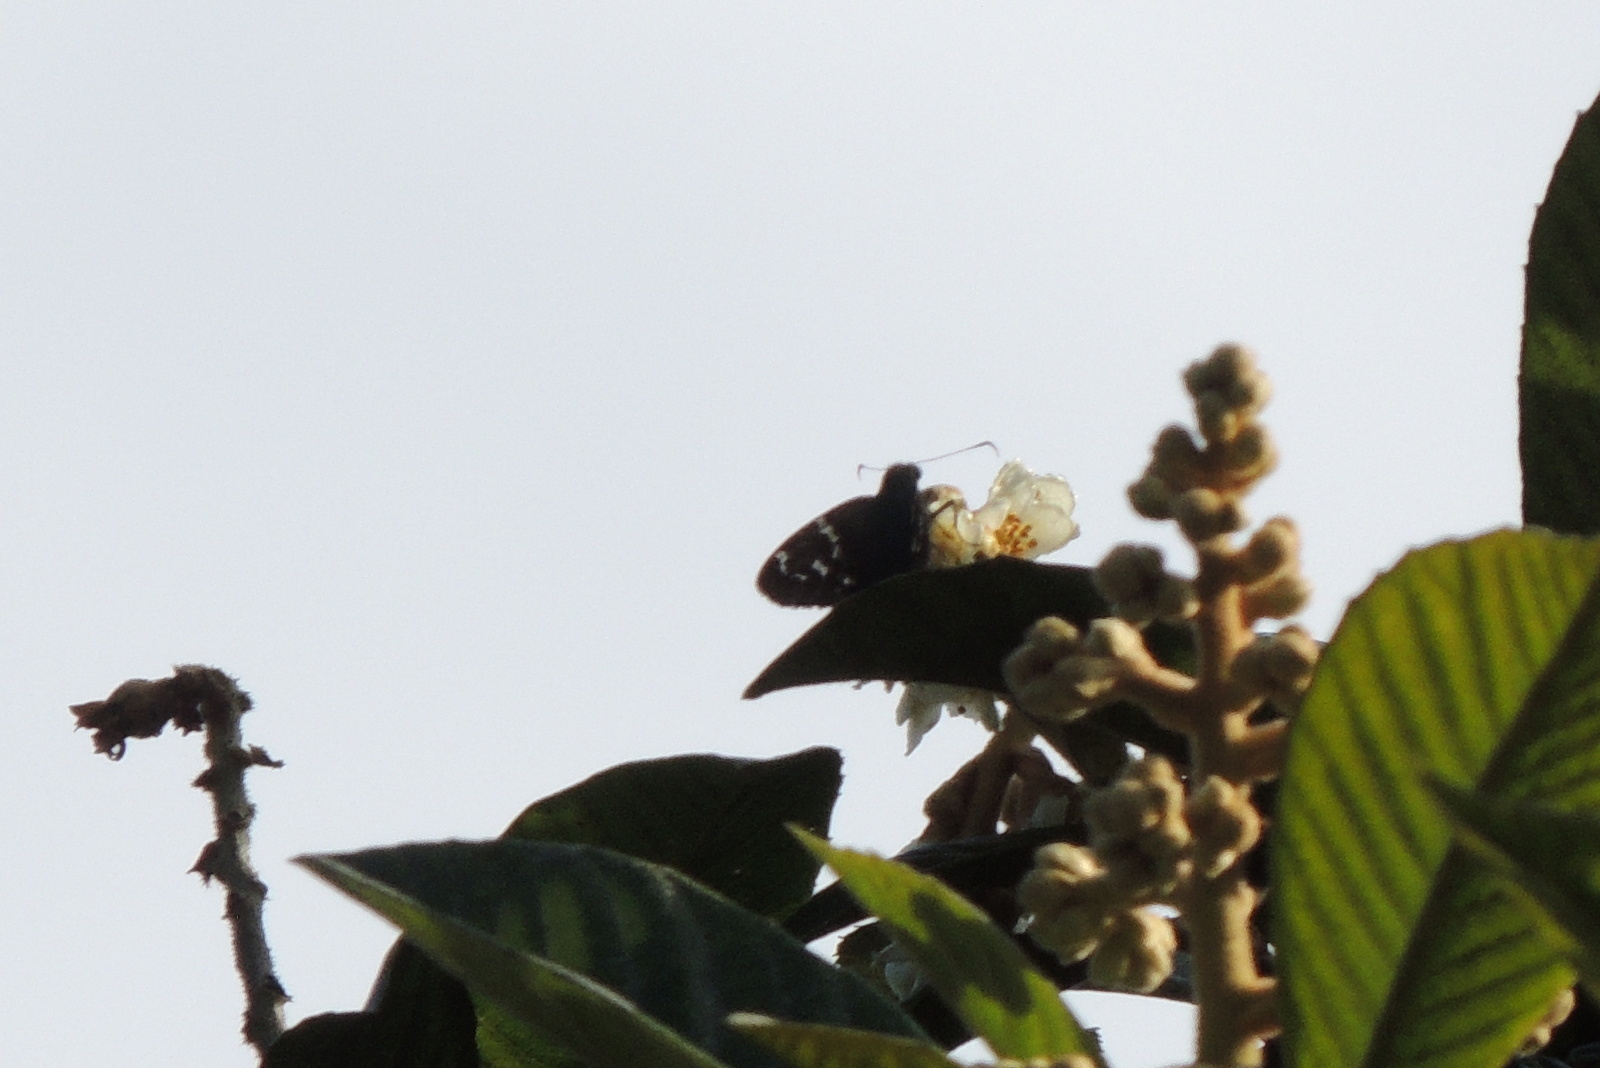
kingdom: Animalia
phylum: Arthropoda
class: Insecta
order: Lepidoptera
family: Hesperiidae
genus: Urbanus
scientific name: Urbanus proteus
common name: Long-tailed skipper
